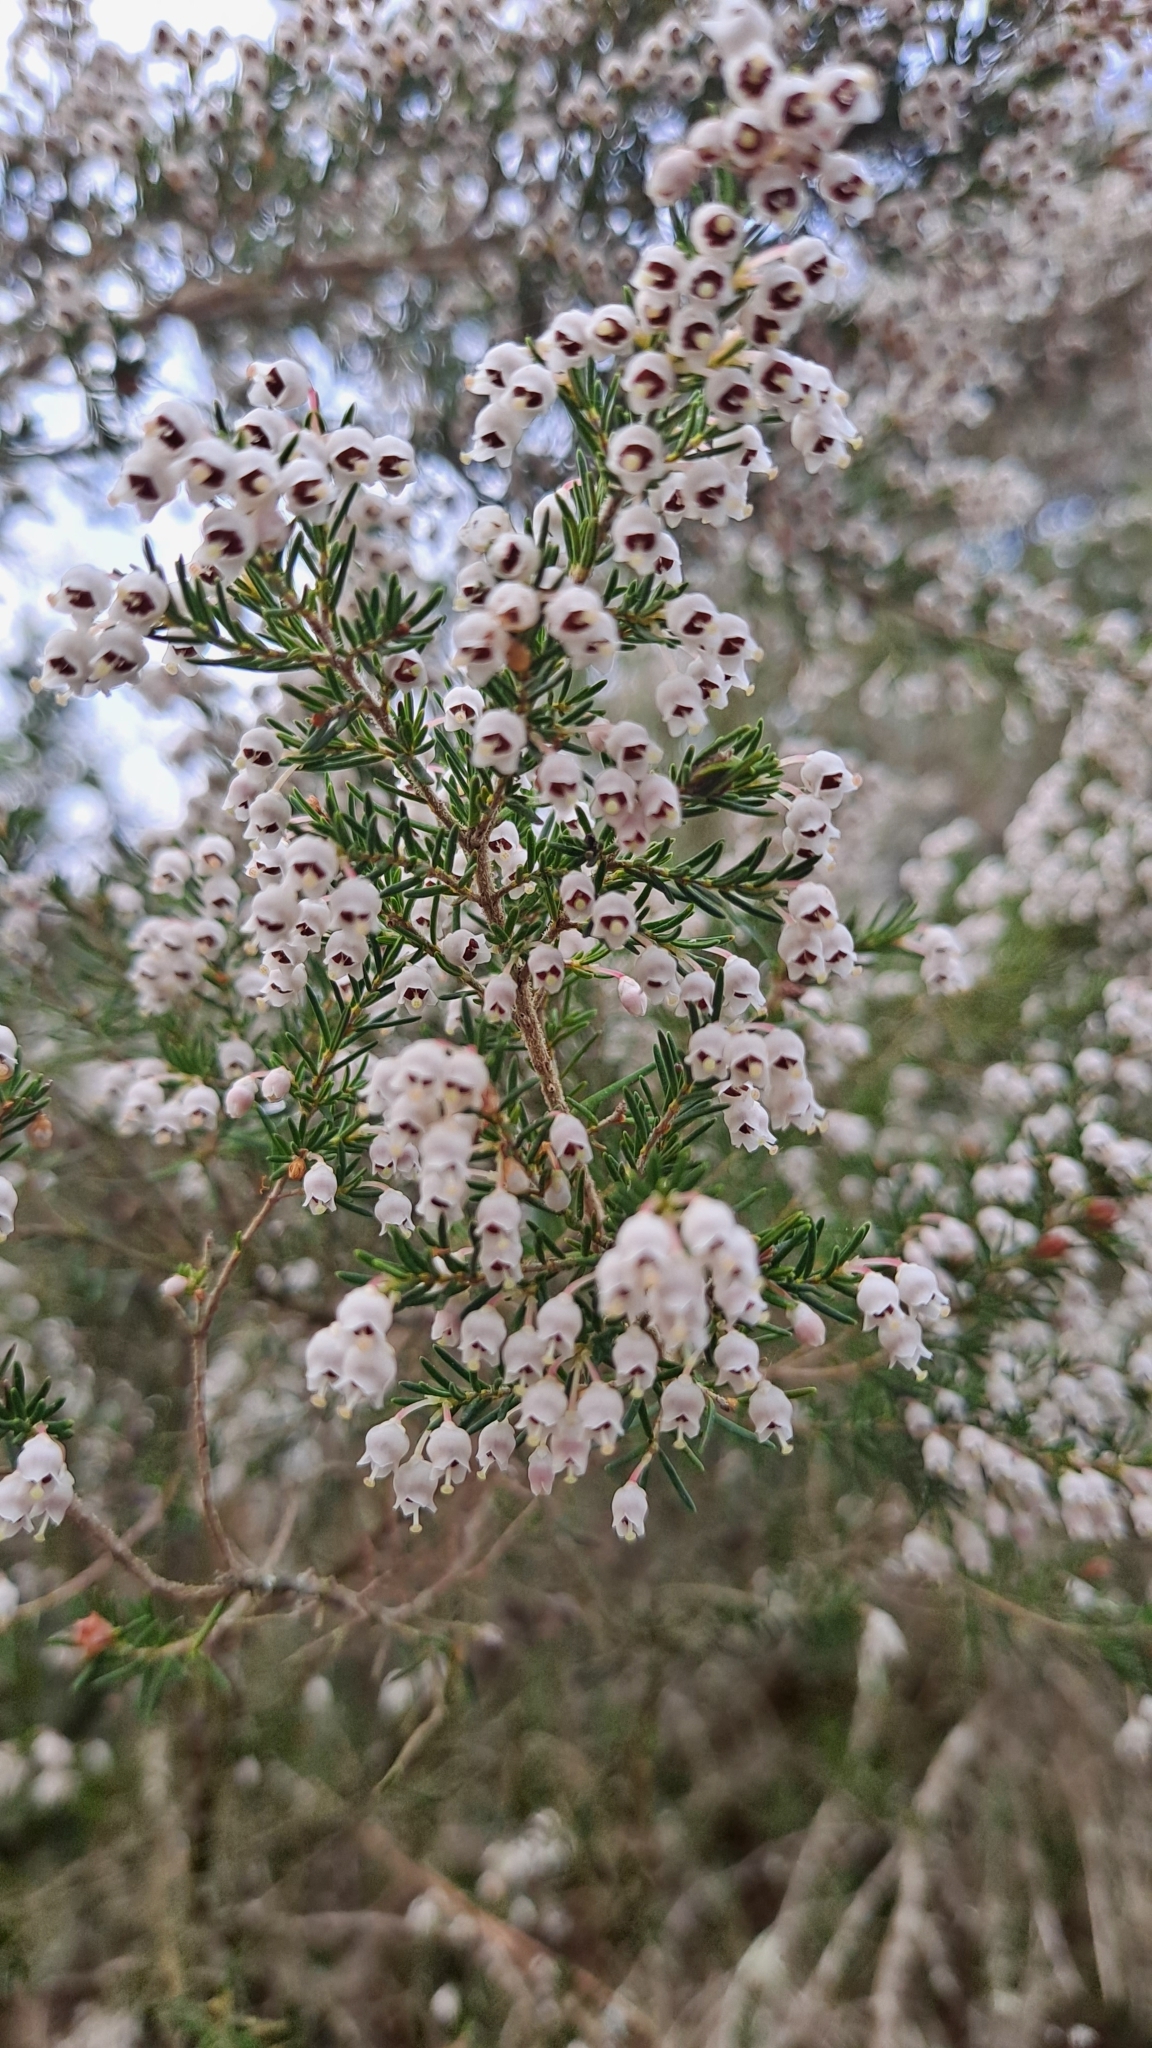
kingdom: Plantae
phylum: Tracheophyta
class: Magnoliopsida
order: Ericales
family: Ericaceae
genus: Erica
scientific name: Erica arborea
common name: Tree heath
